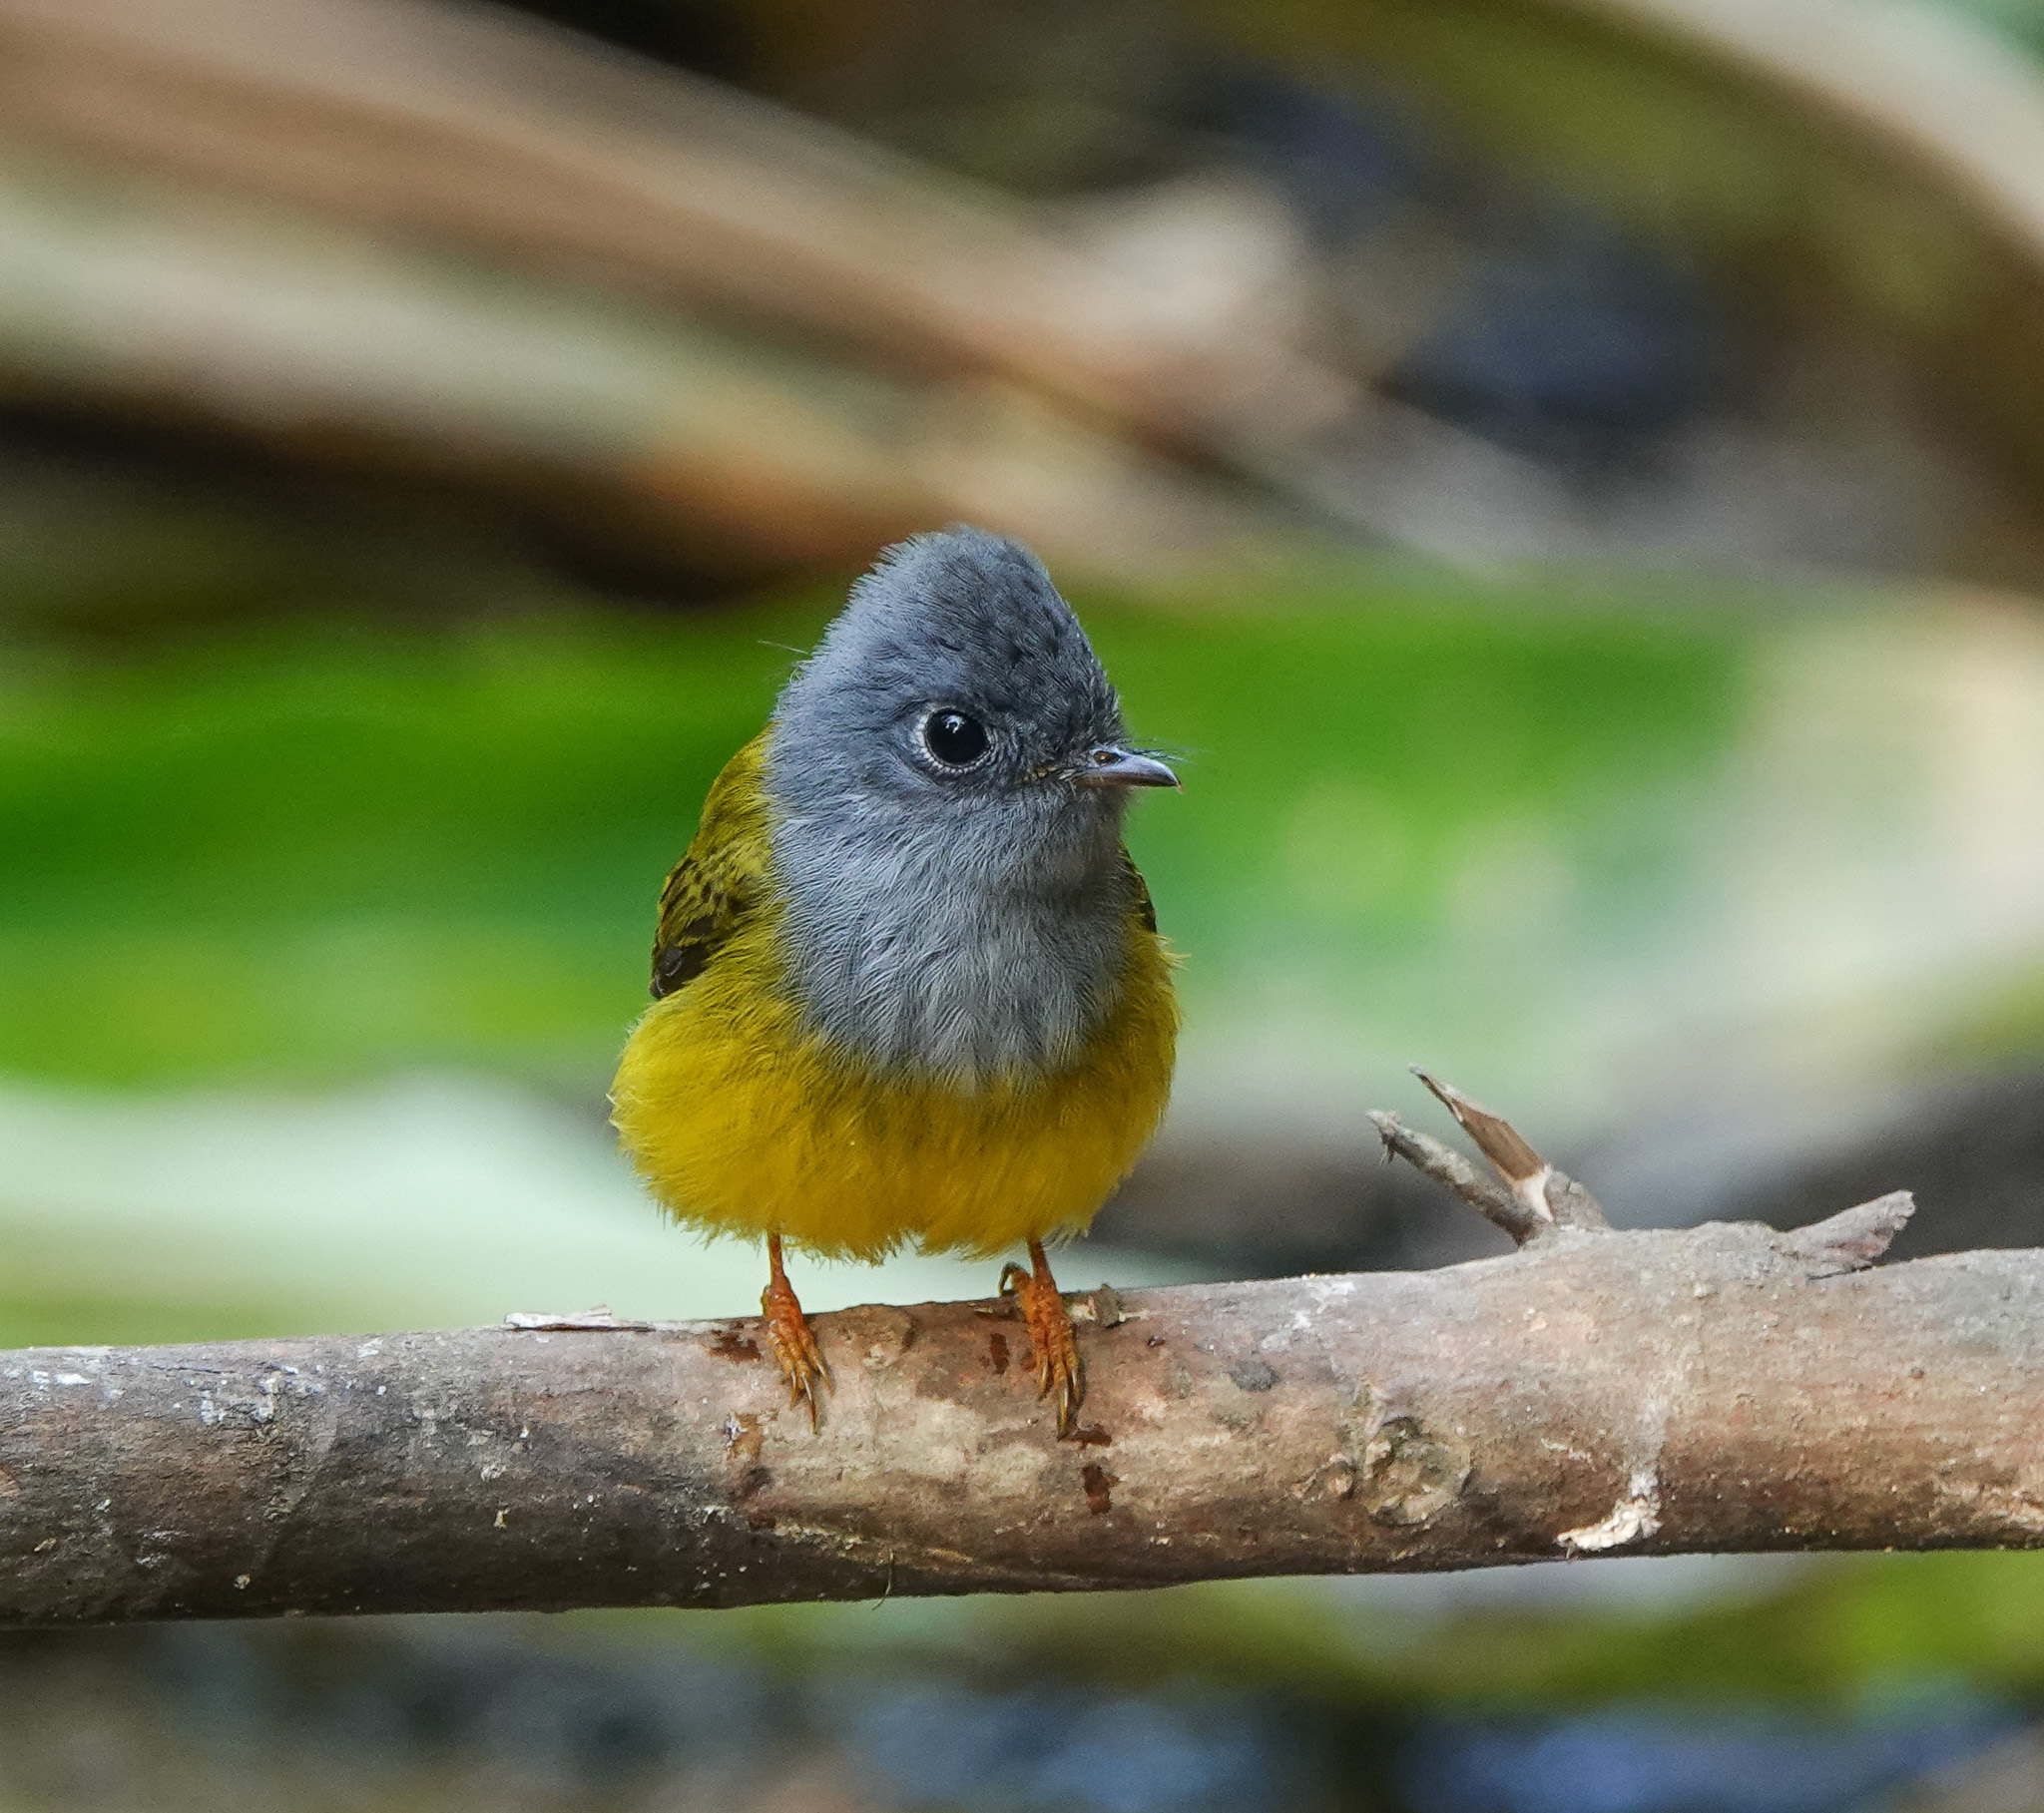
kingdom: Animalia
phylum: Chordata
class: Aves
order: Passeriformes
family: Stenostiridae
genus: Culicicapa
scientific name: Culicicapa ceylonensis
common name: Grey-headed canary-flycatcher
